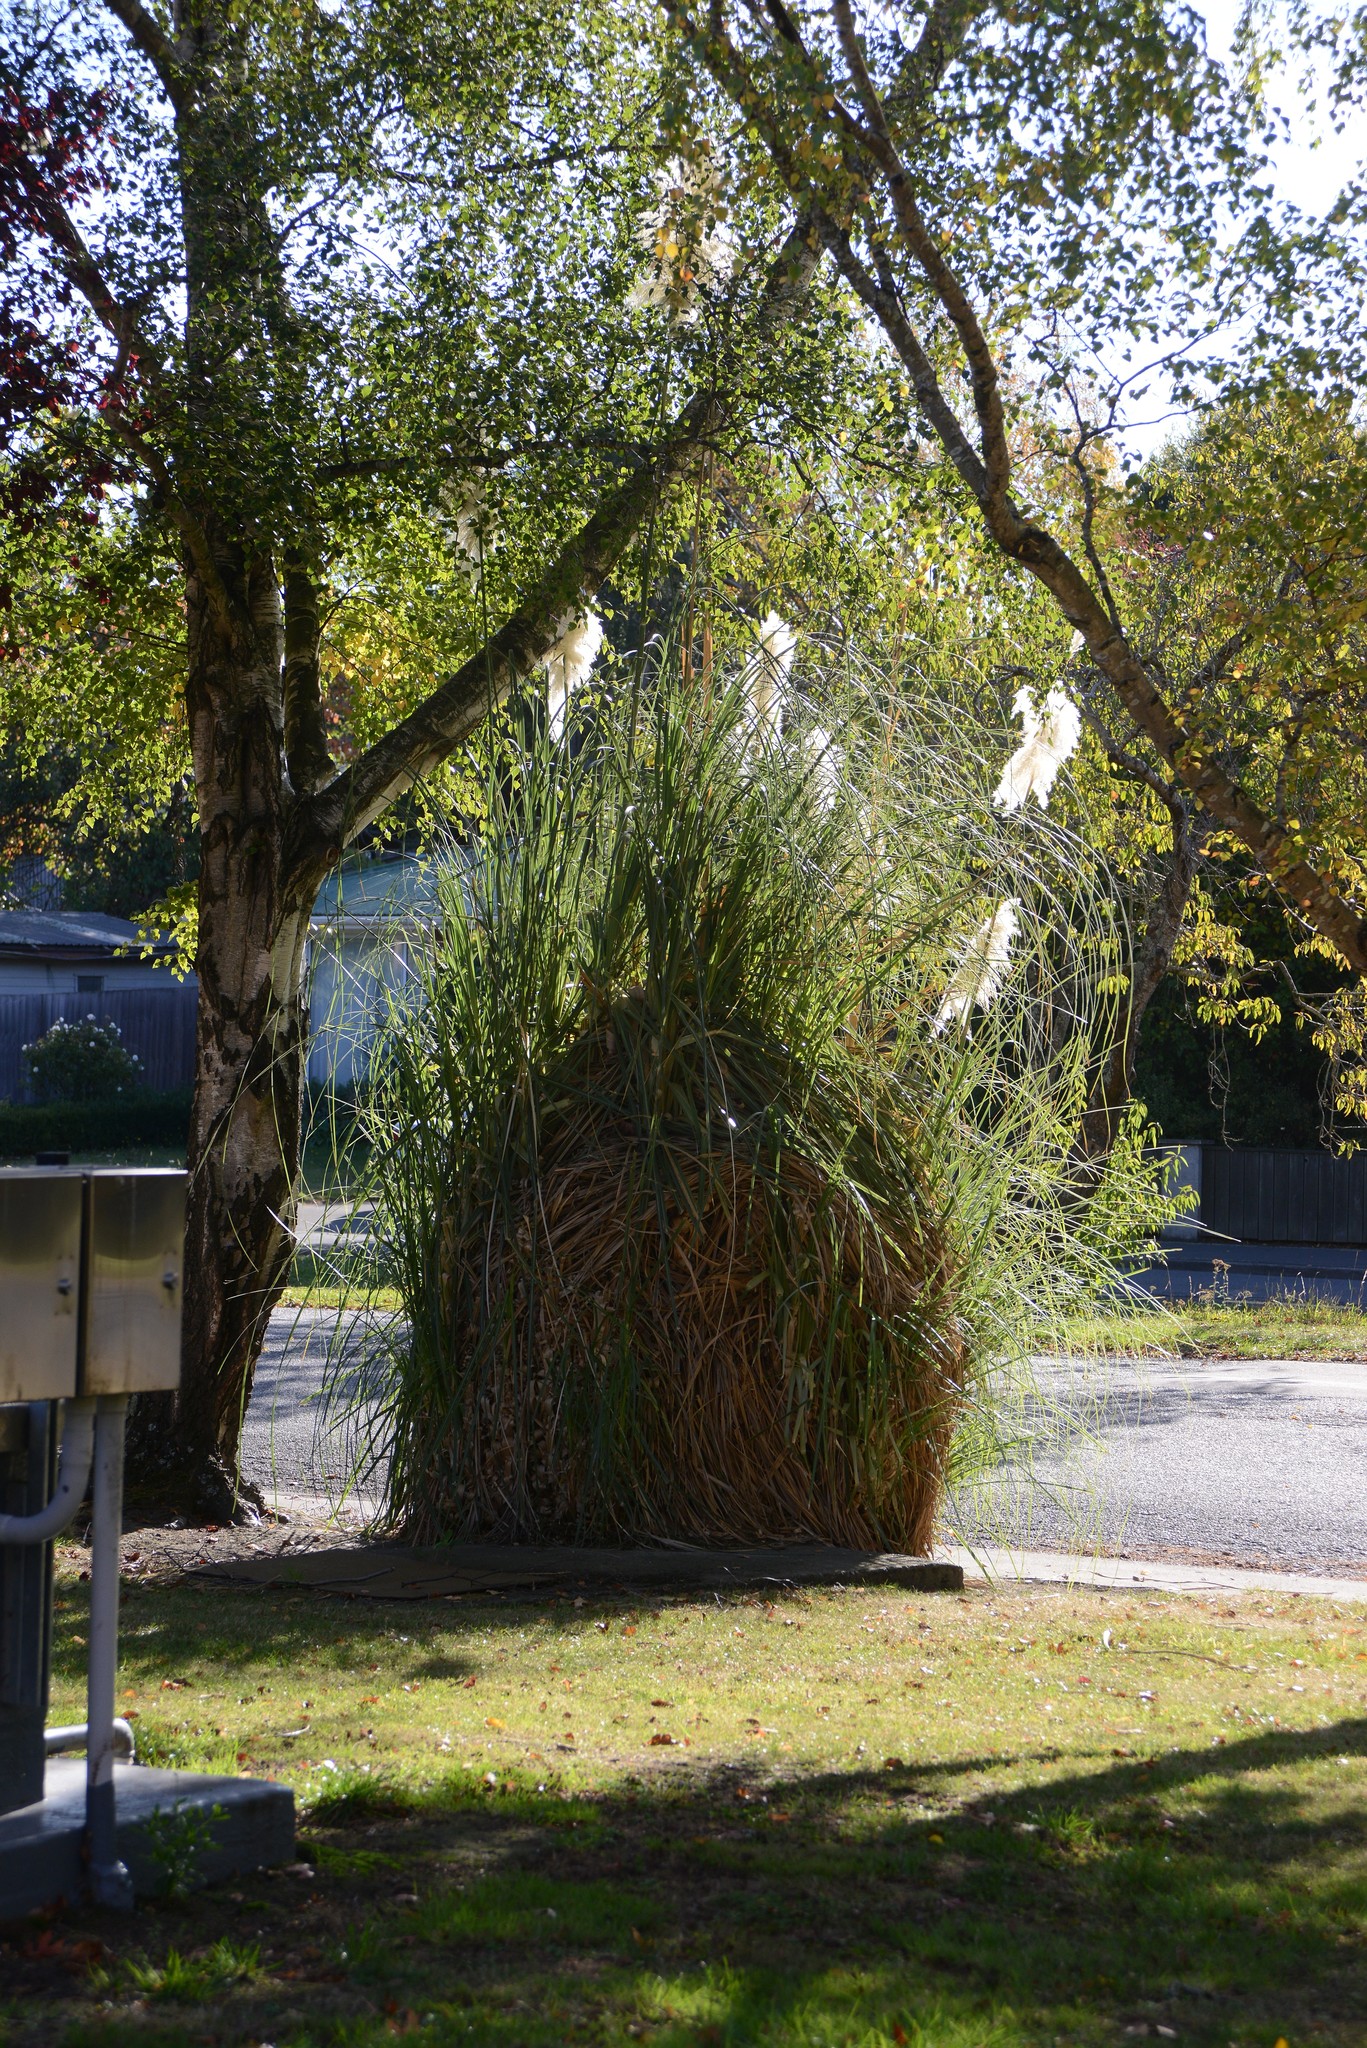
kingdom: Plantae
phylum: Tracheophyta
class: Liliopsida
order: Poales
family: Poaceae
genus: Cortaderia
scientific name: Cortaderia selloana
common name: Uruguayan pampas grass
